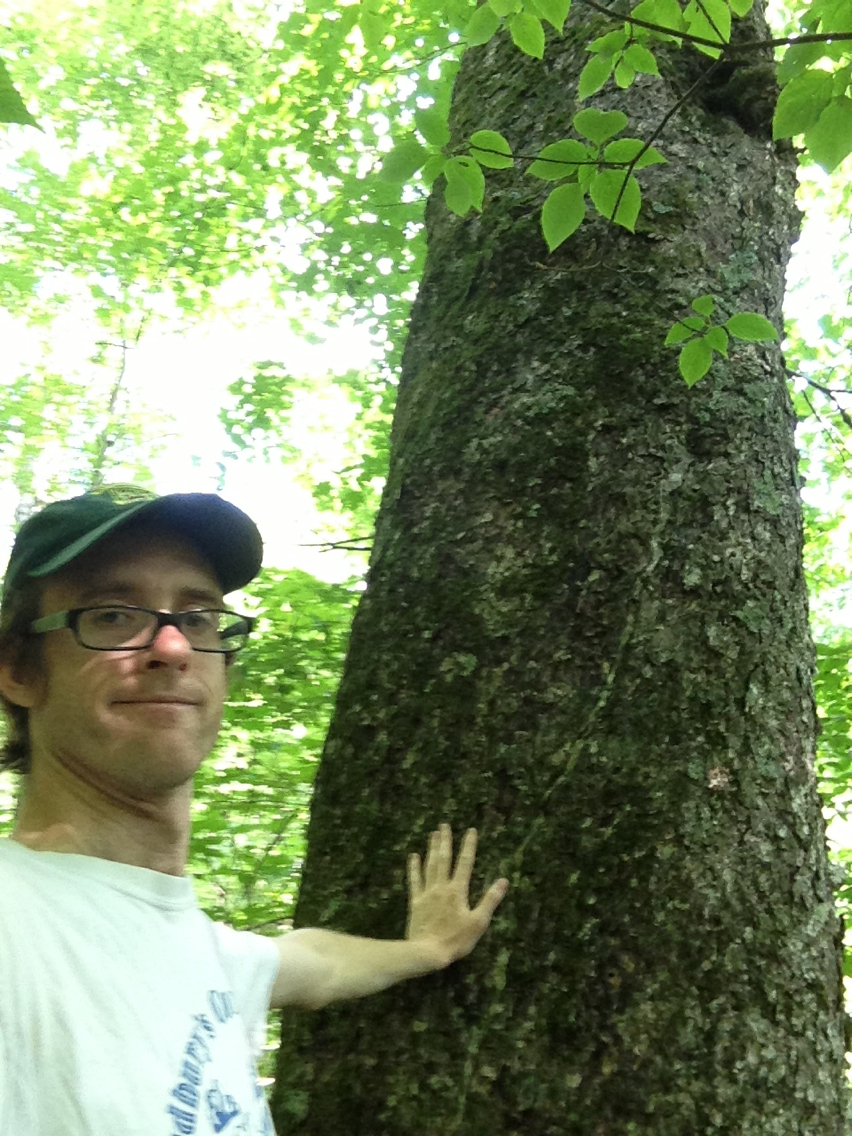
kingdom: Plantae
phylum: Tracheophyta
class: Magnoliopsida
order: Fagales
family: Betulaceae
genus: Betula
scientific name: Betula alleghaniensis
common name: Yellow birch
